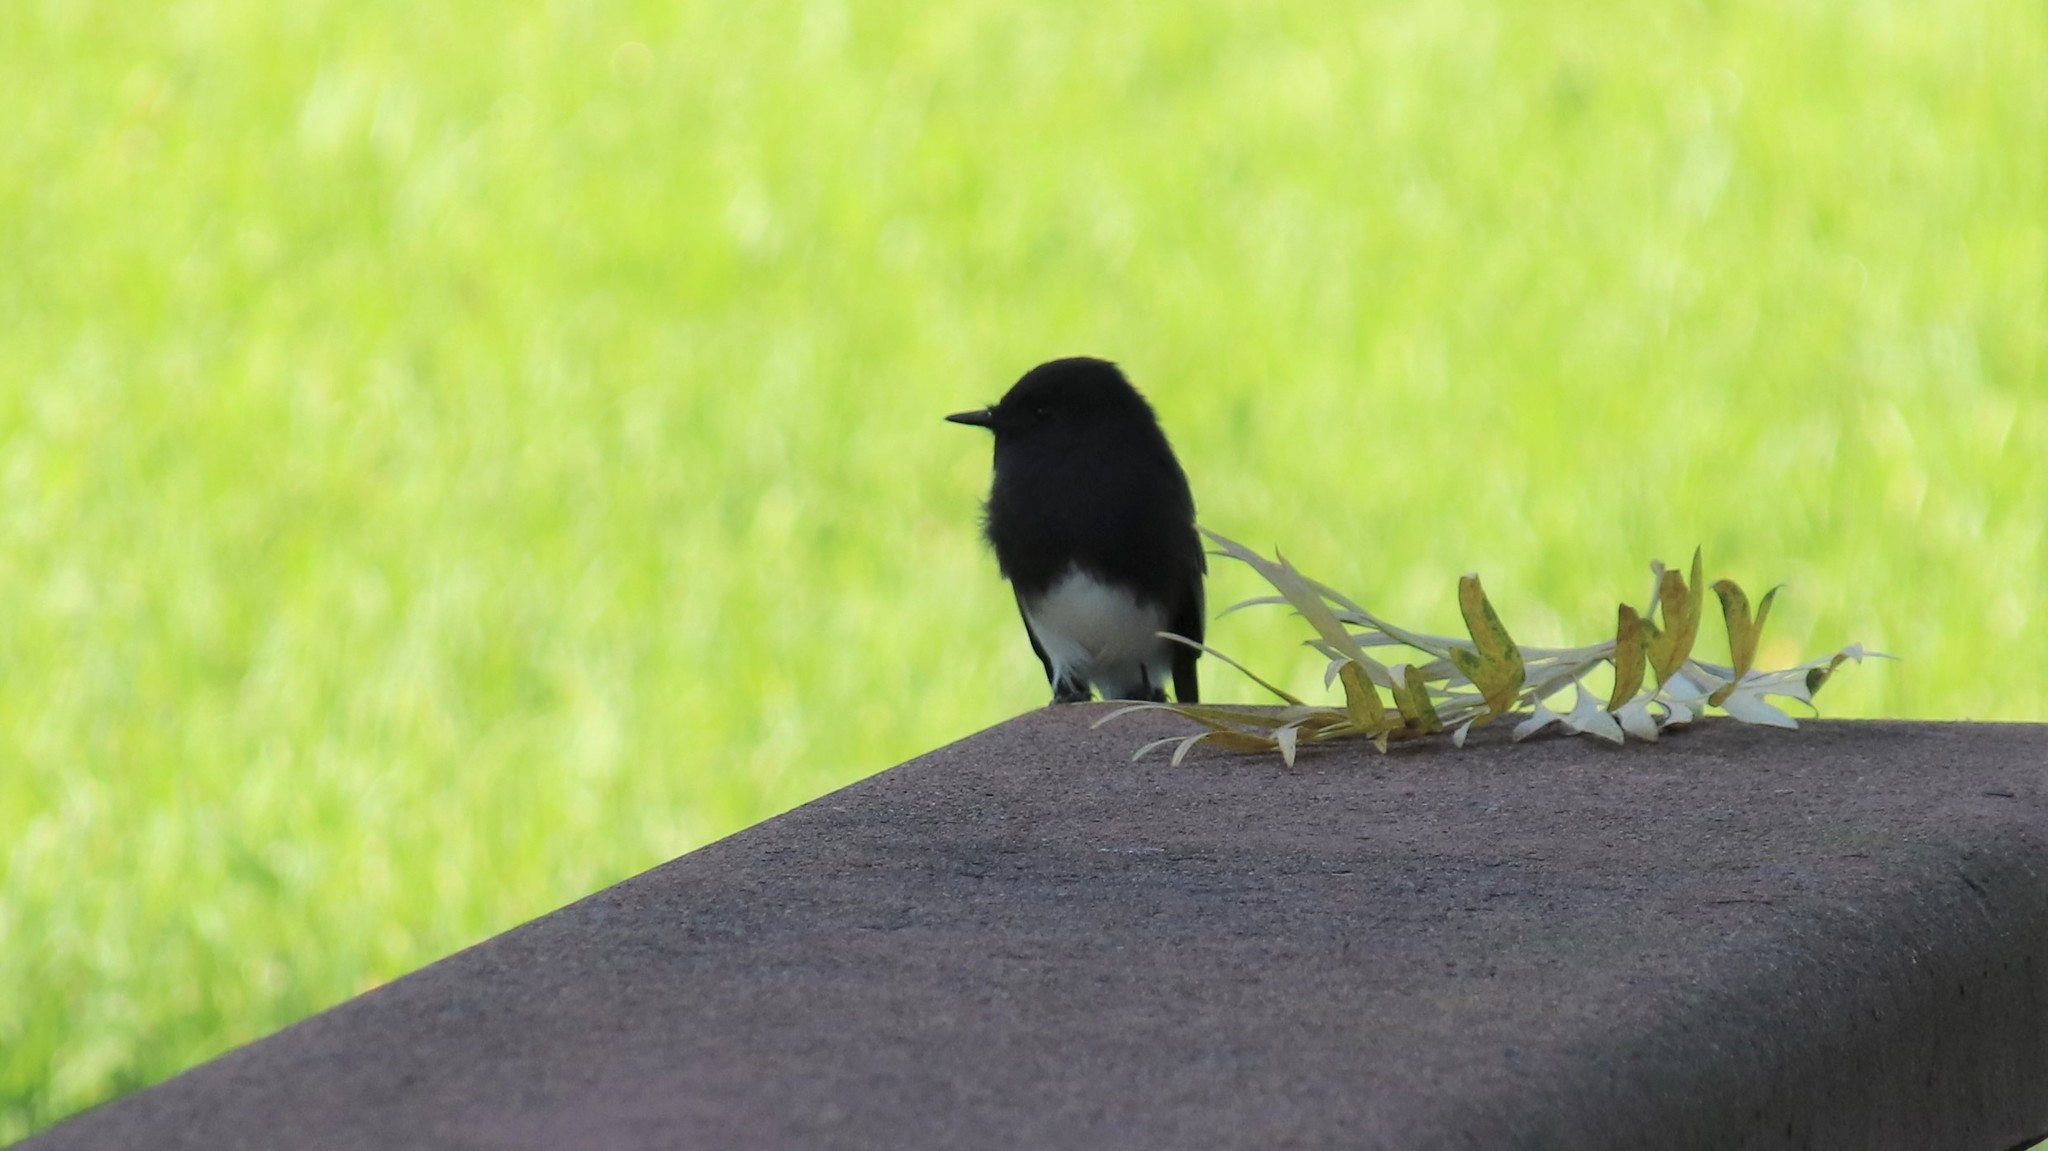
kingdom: Animalia
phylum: Chordata
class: Aves
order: Passeriformes
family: Tyrannidae
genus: Sayornis
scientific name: Sayornis nigricans
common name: Black phoebe
